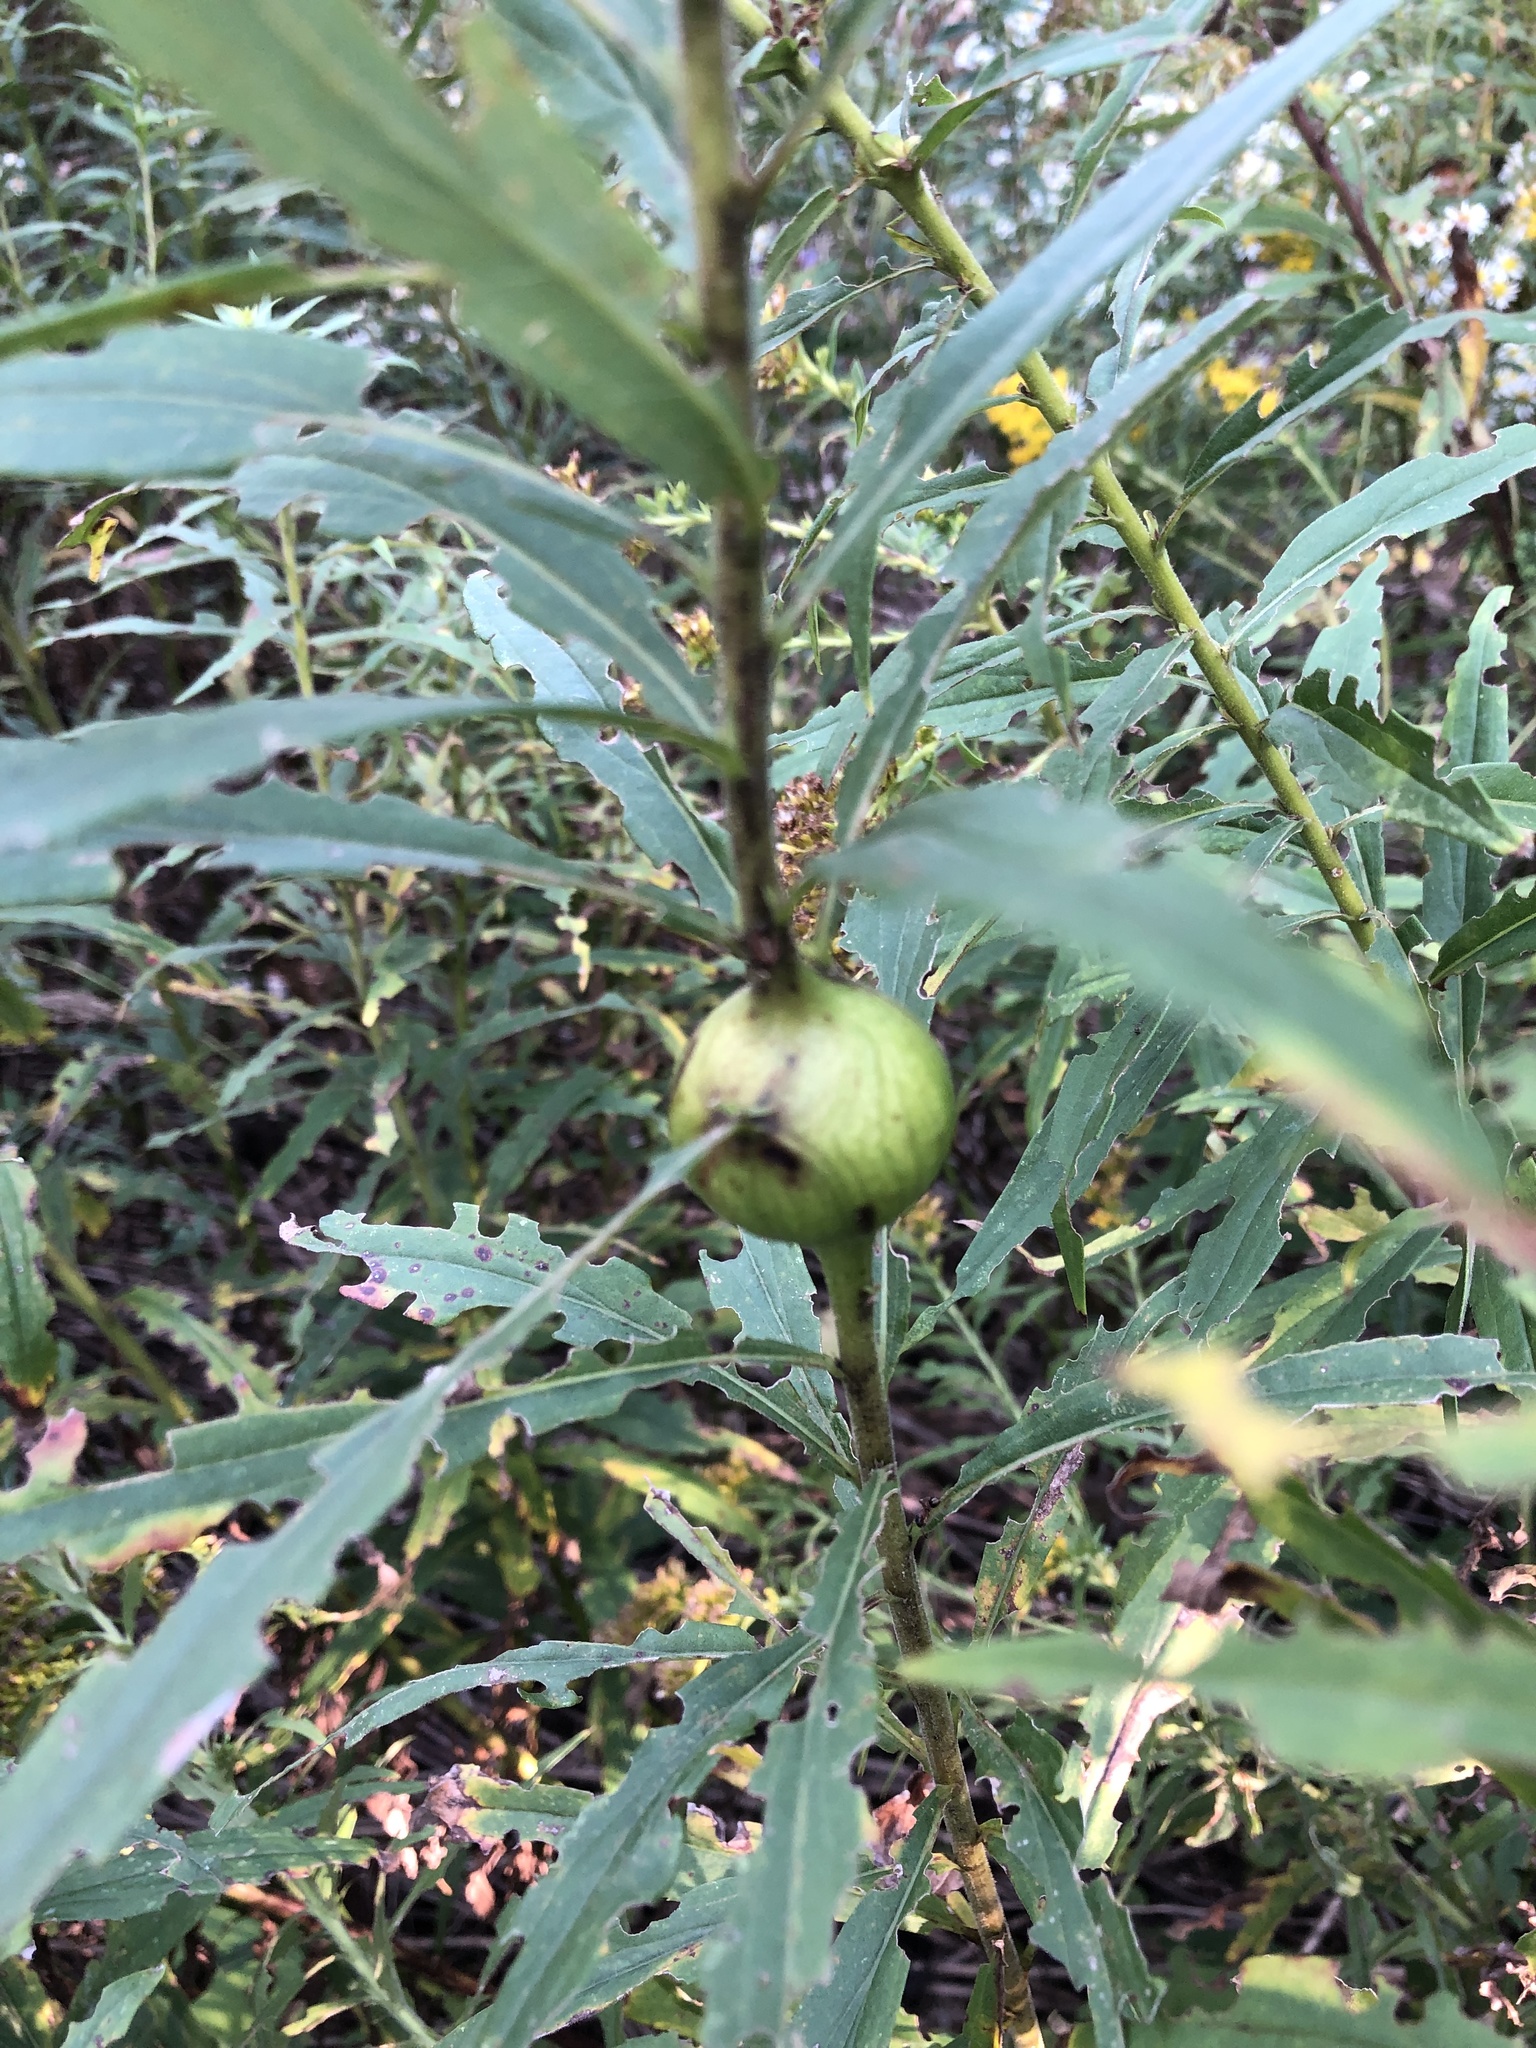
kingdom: Animalia
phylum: Arthropoda
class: Insecta
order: Diptera
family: Tephritidae
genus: Eurosta
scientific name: Eurosta solidaginis
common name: Goldenrod gall fly
